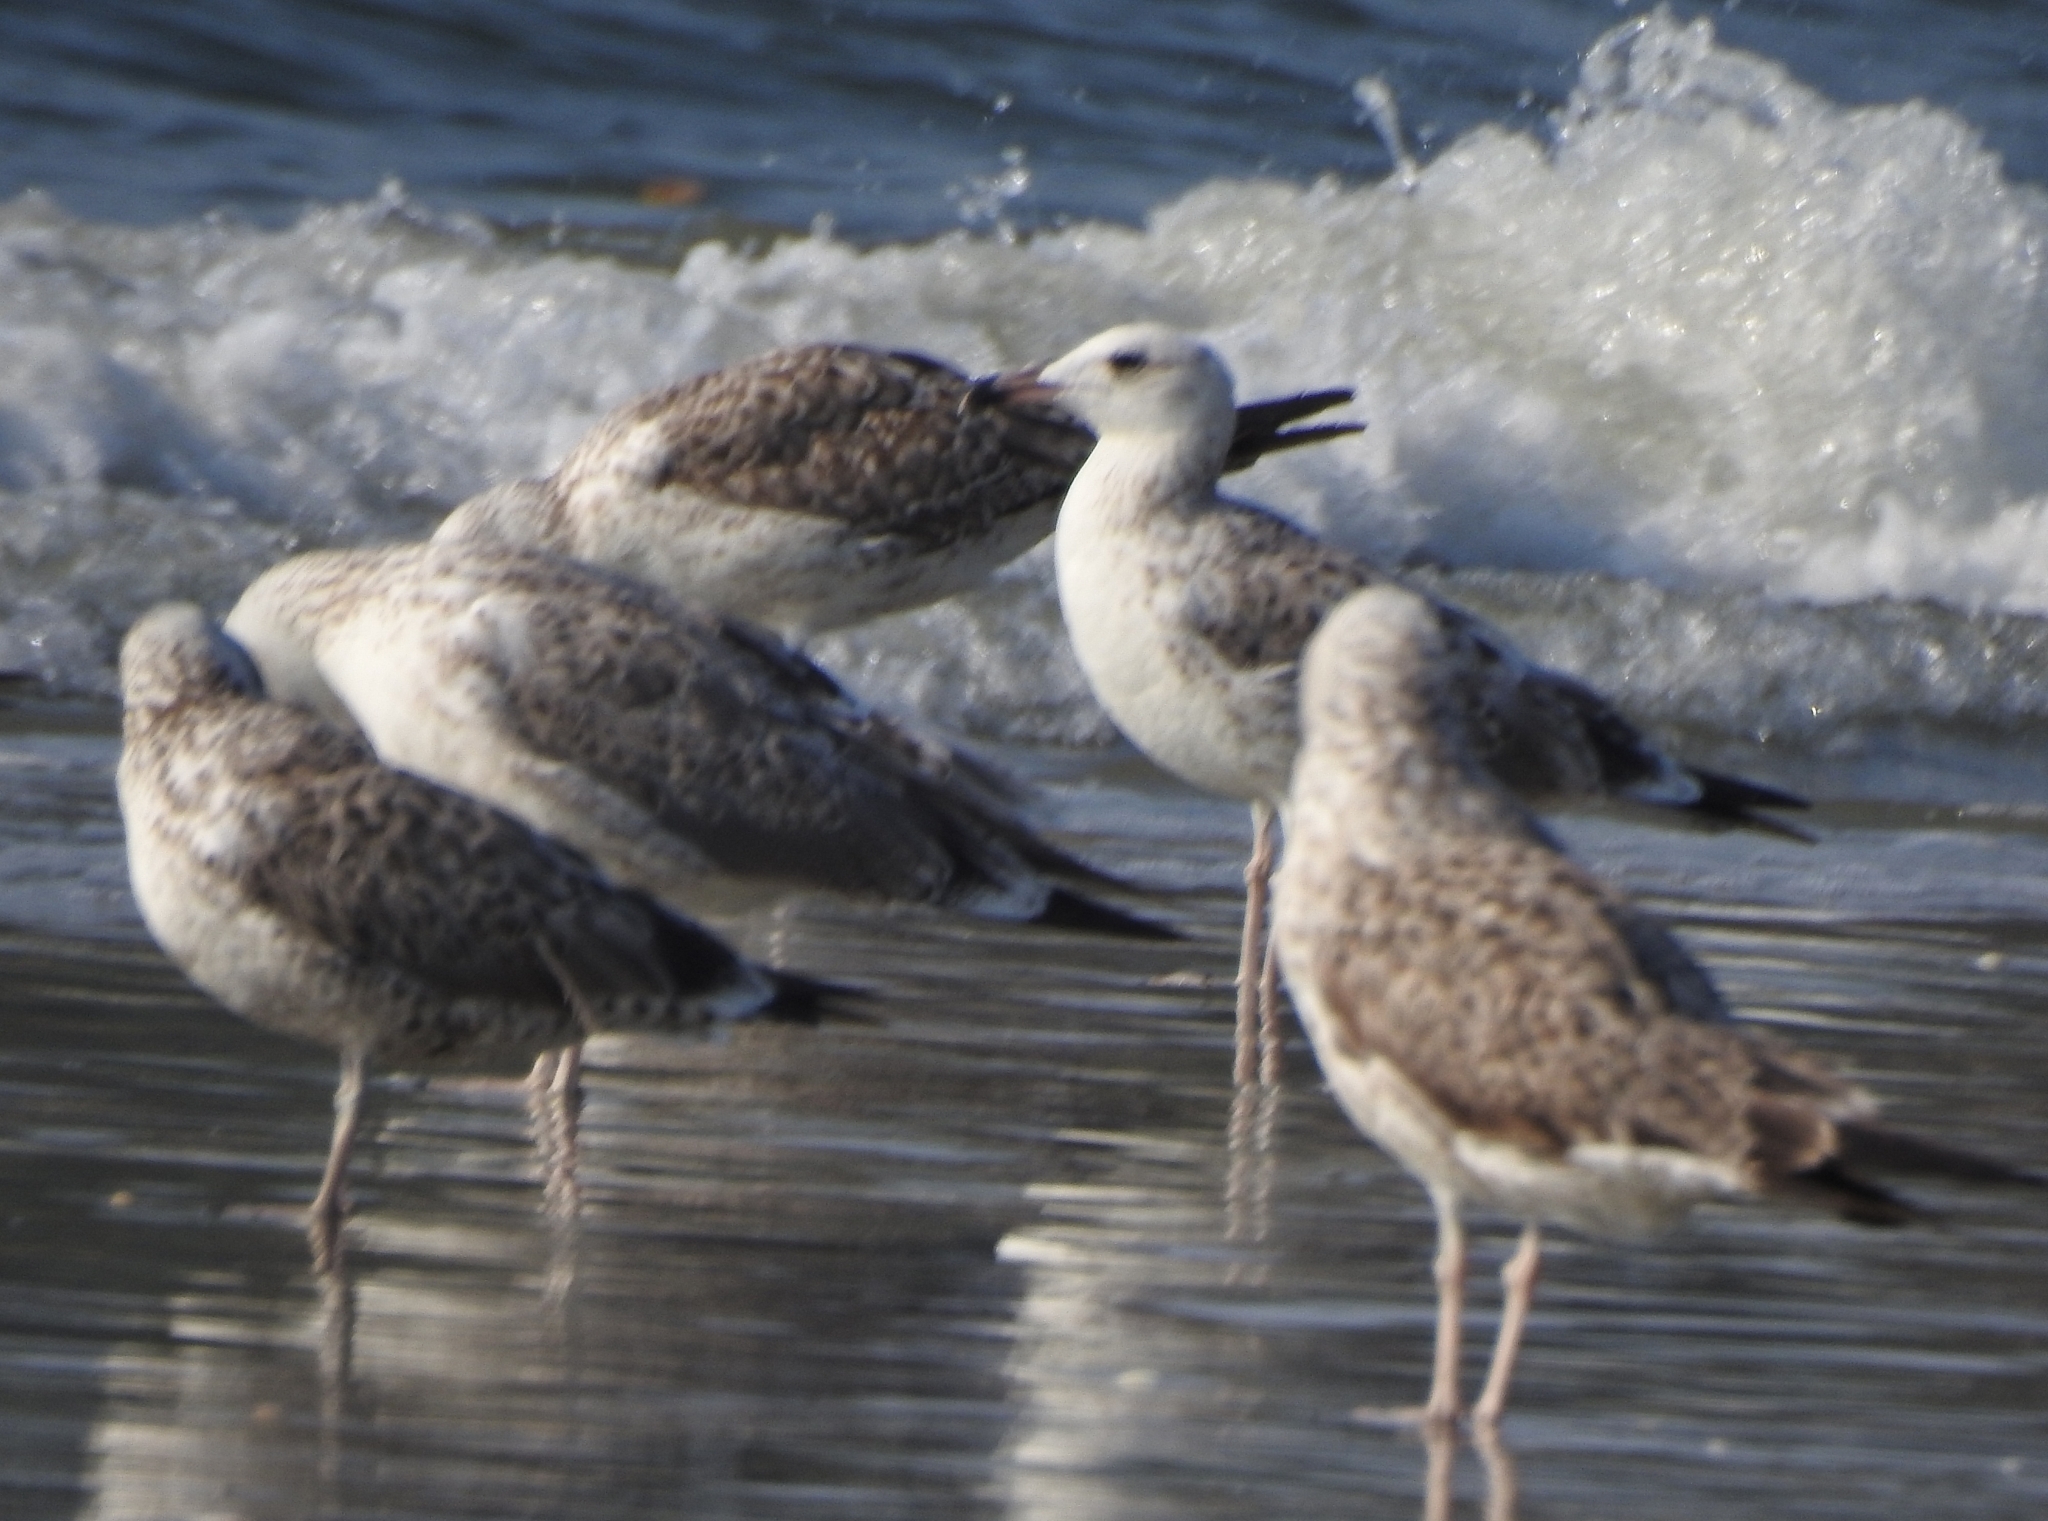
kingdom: Animalia
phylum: Chordata
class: Aves
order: Charadriiformes
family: Laridae
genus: Larus
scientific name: Larus fuscus
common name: Lesser black-backed gull
